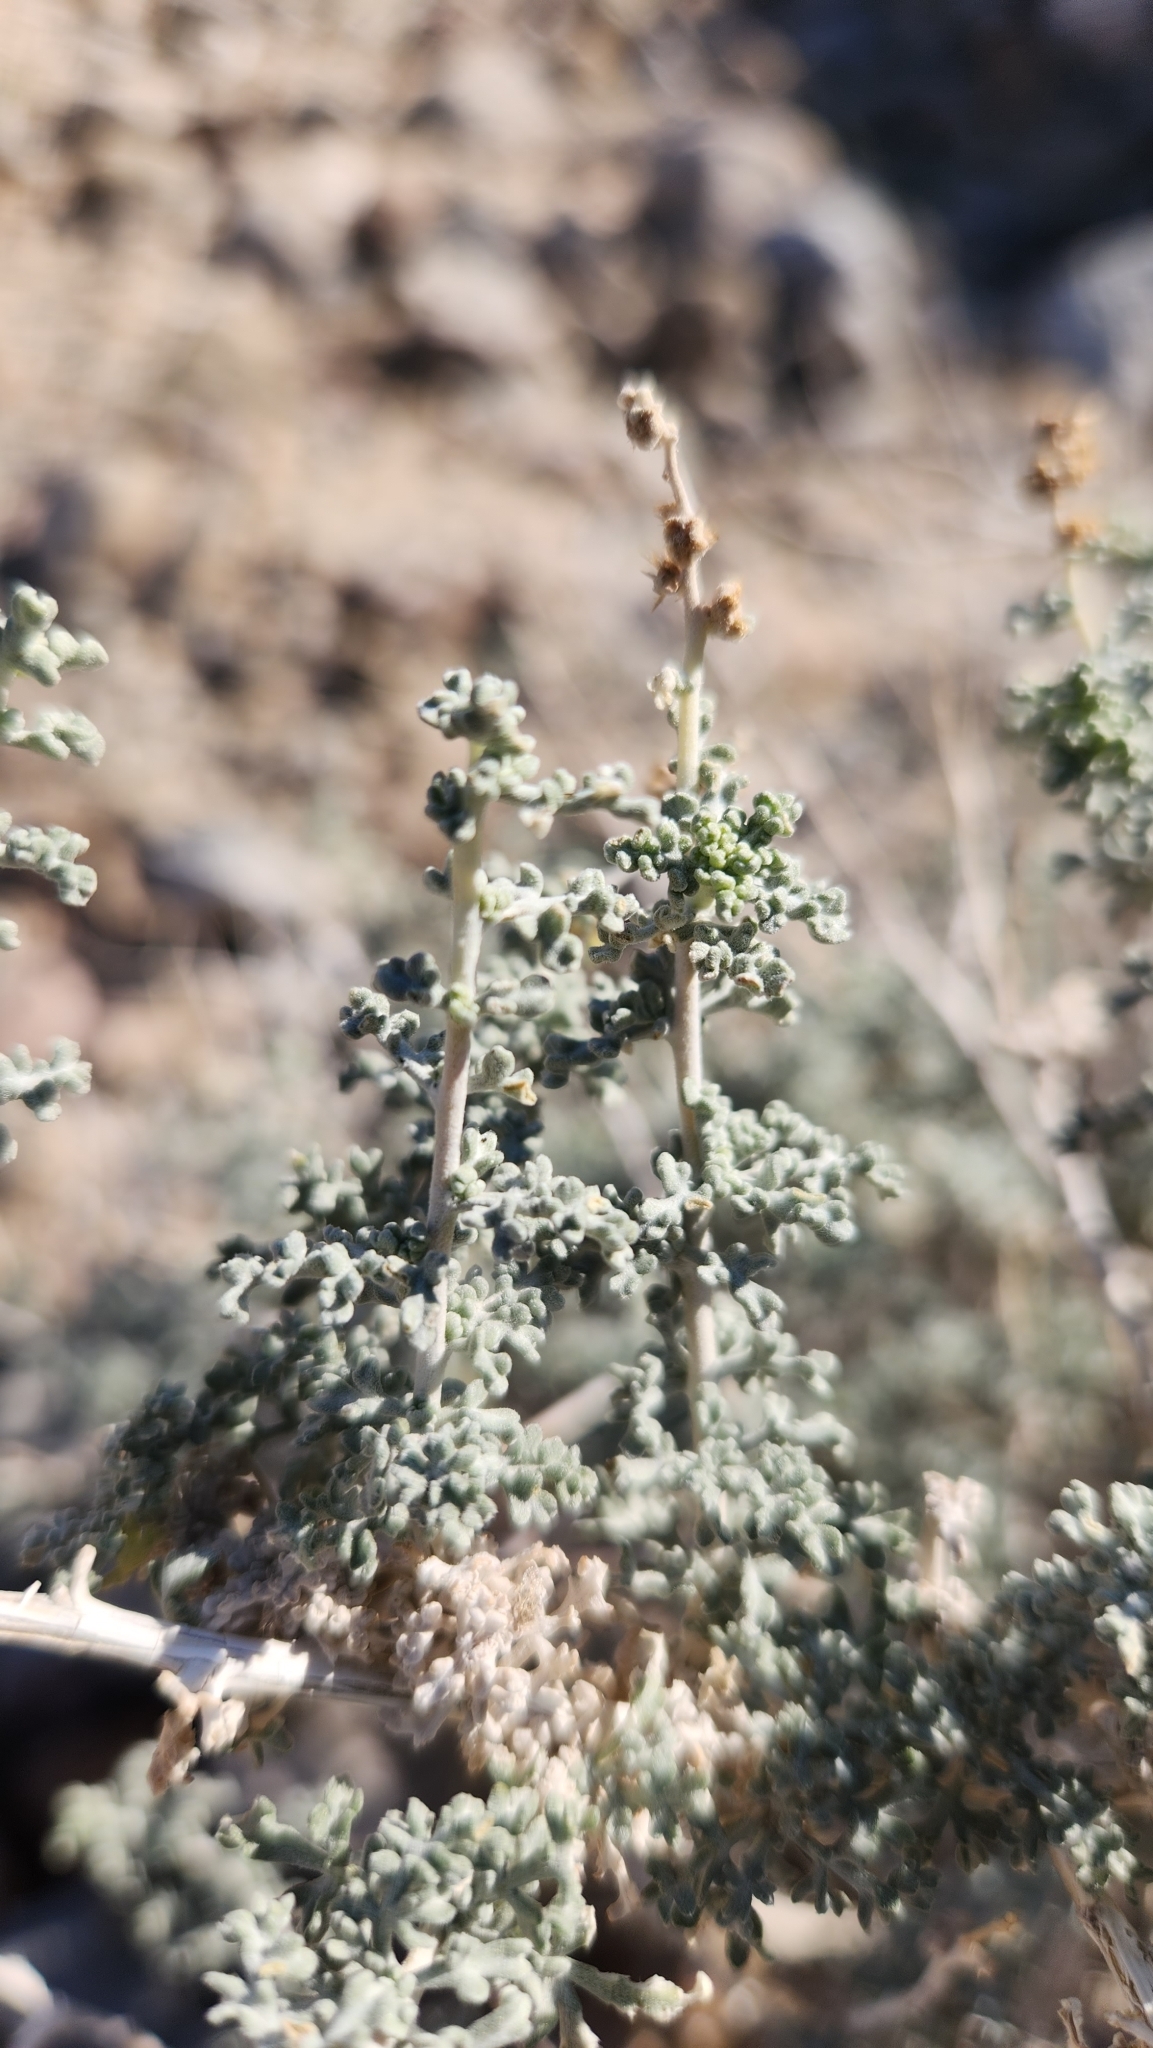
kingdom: Plantae
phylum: Tracheophyta
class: Magnoliopsida
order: Asterales
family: Asteraceae
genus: Ambrosia
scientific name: Ambrosia dumosa
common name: Bur-sage
